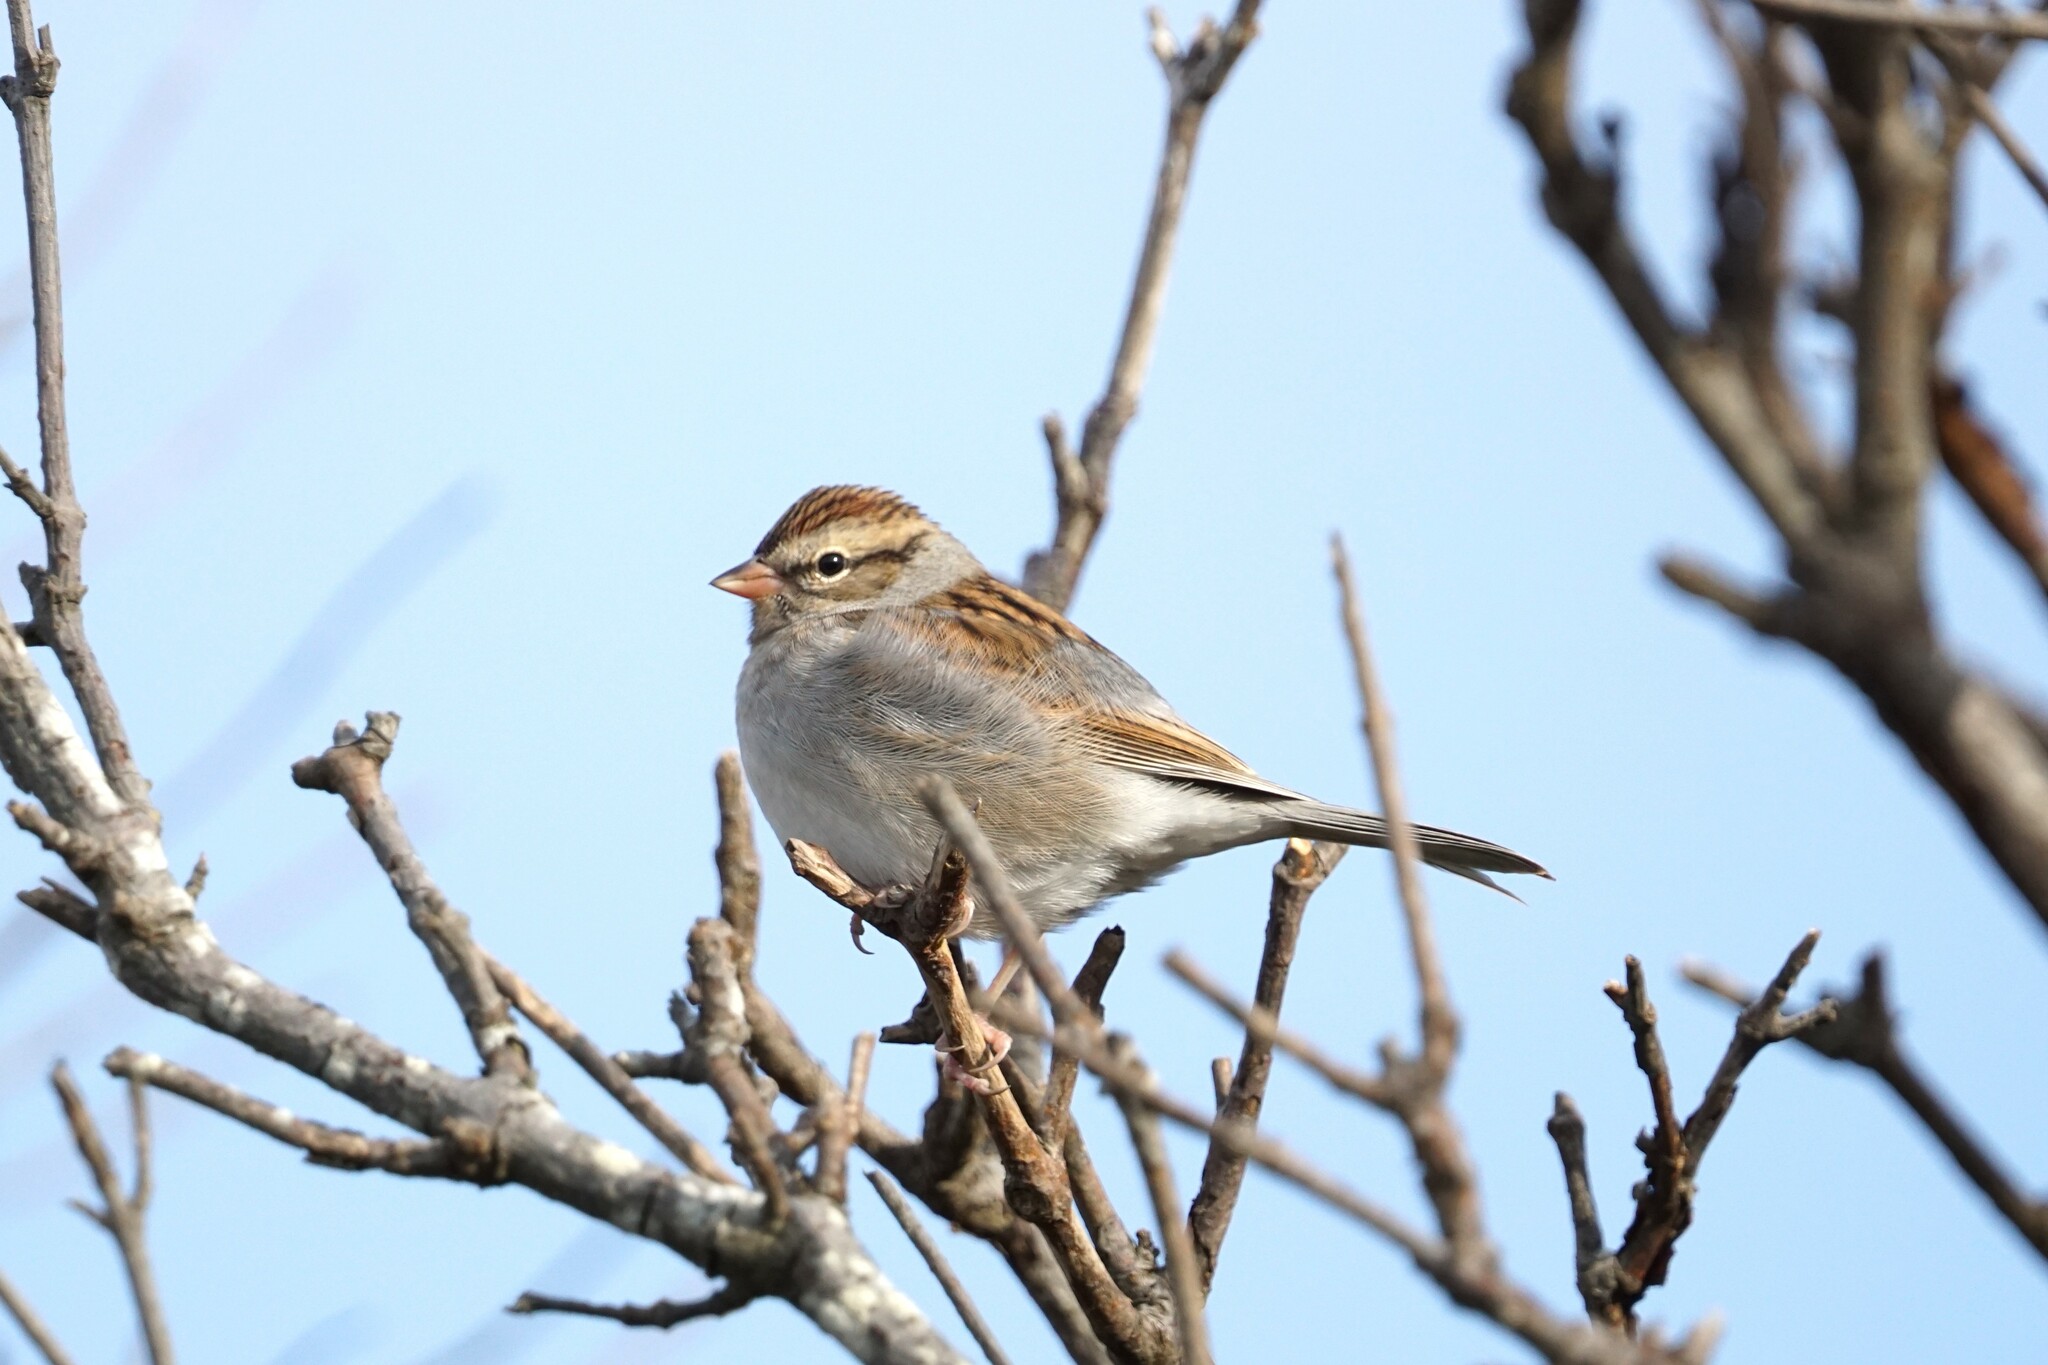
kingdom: Animalia
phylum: Chordata
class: Aves
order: Passeriformes
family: Passerellidae
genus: Spizella
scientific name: Spizella passerina
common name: Chipping sparrow
